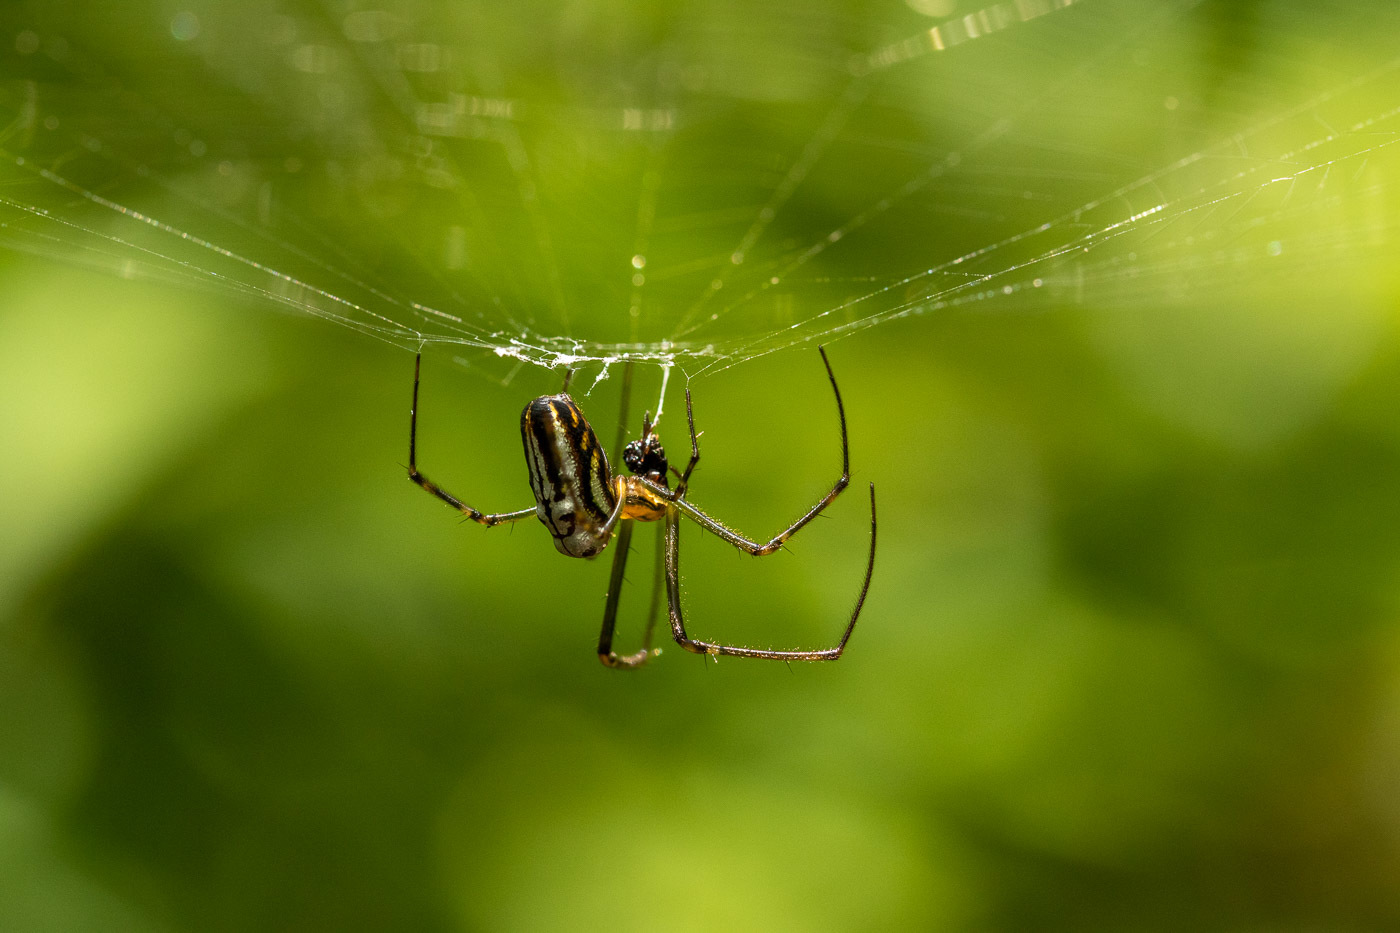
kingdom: Animalia
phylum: Arthropoda
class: Arachnida
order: Araneae
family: Tetragnathidae
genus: Leucauge
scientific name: Leucauge dromedaria
